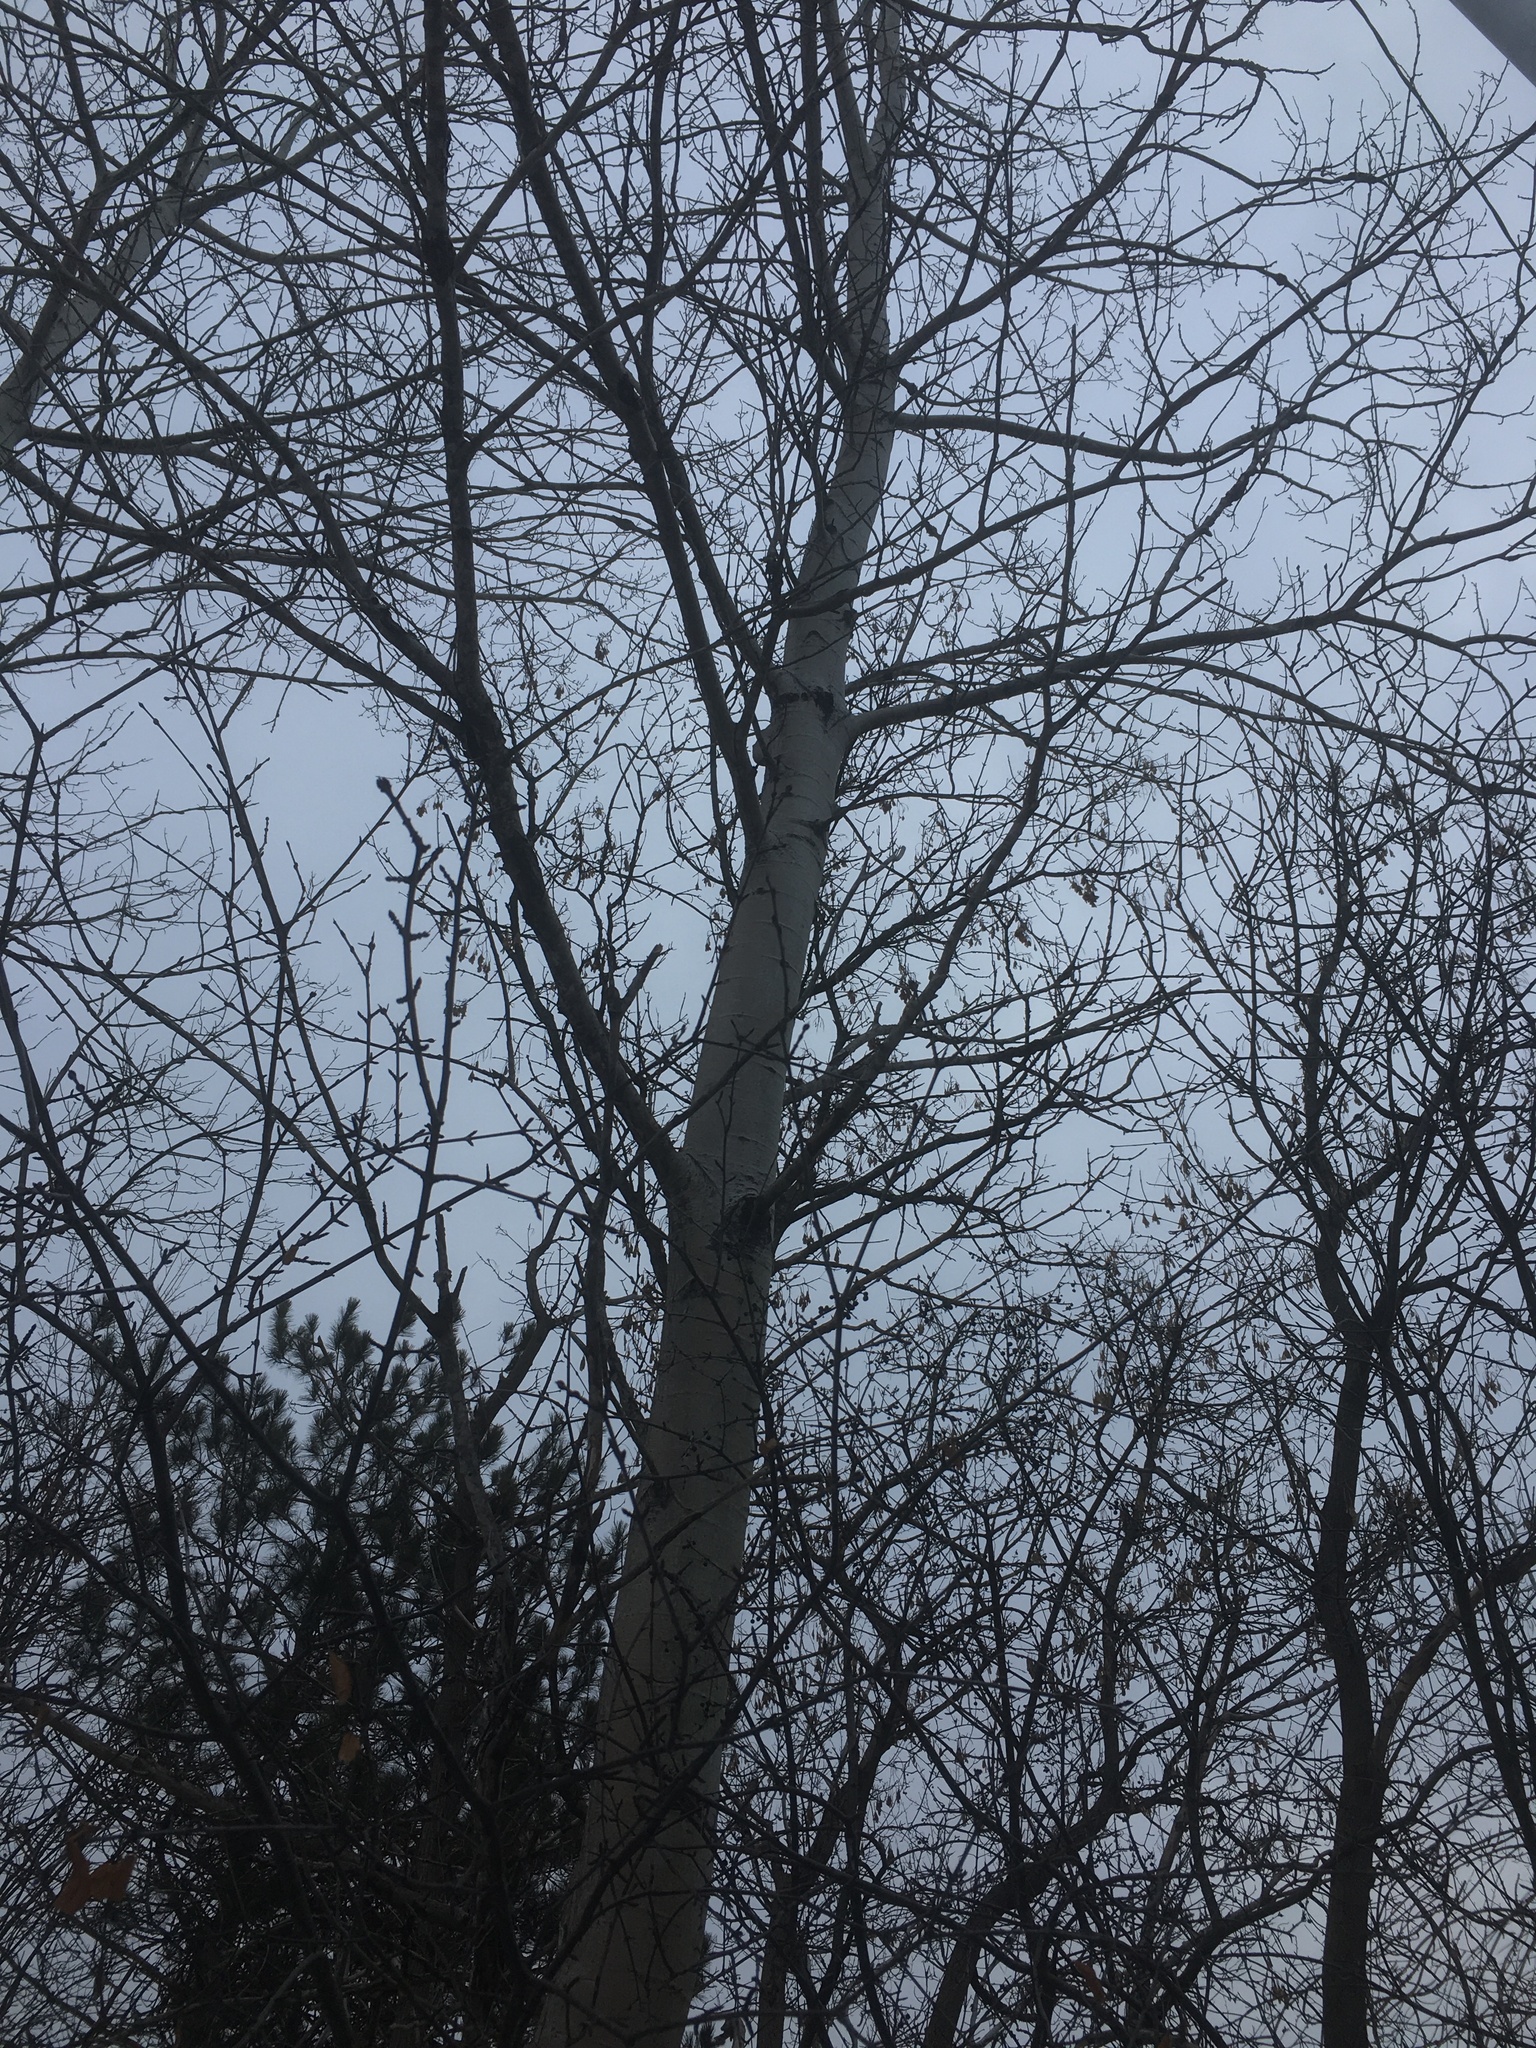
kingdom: Plantae
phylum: Tracheophyta
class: Magnoliopsida
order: Malpighiales
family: Salicaceae
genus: Populus
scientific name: Populus tremuloides
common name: Quaking aspen
